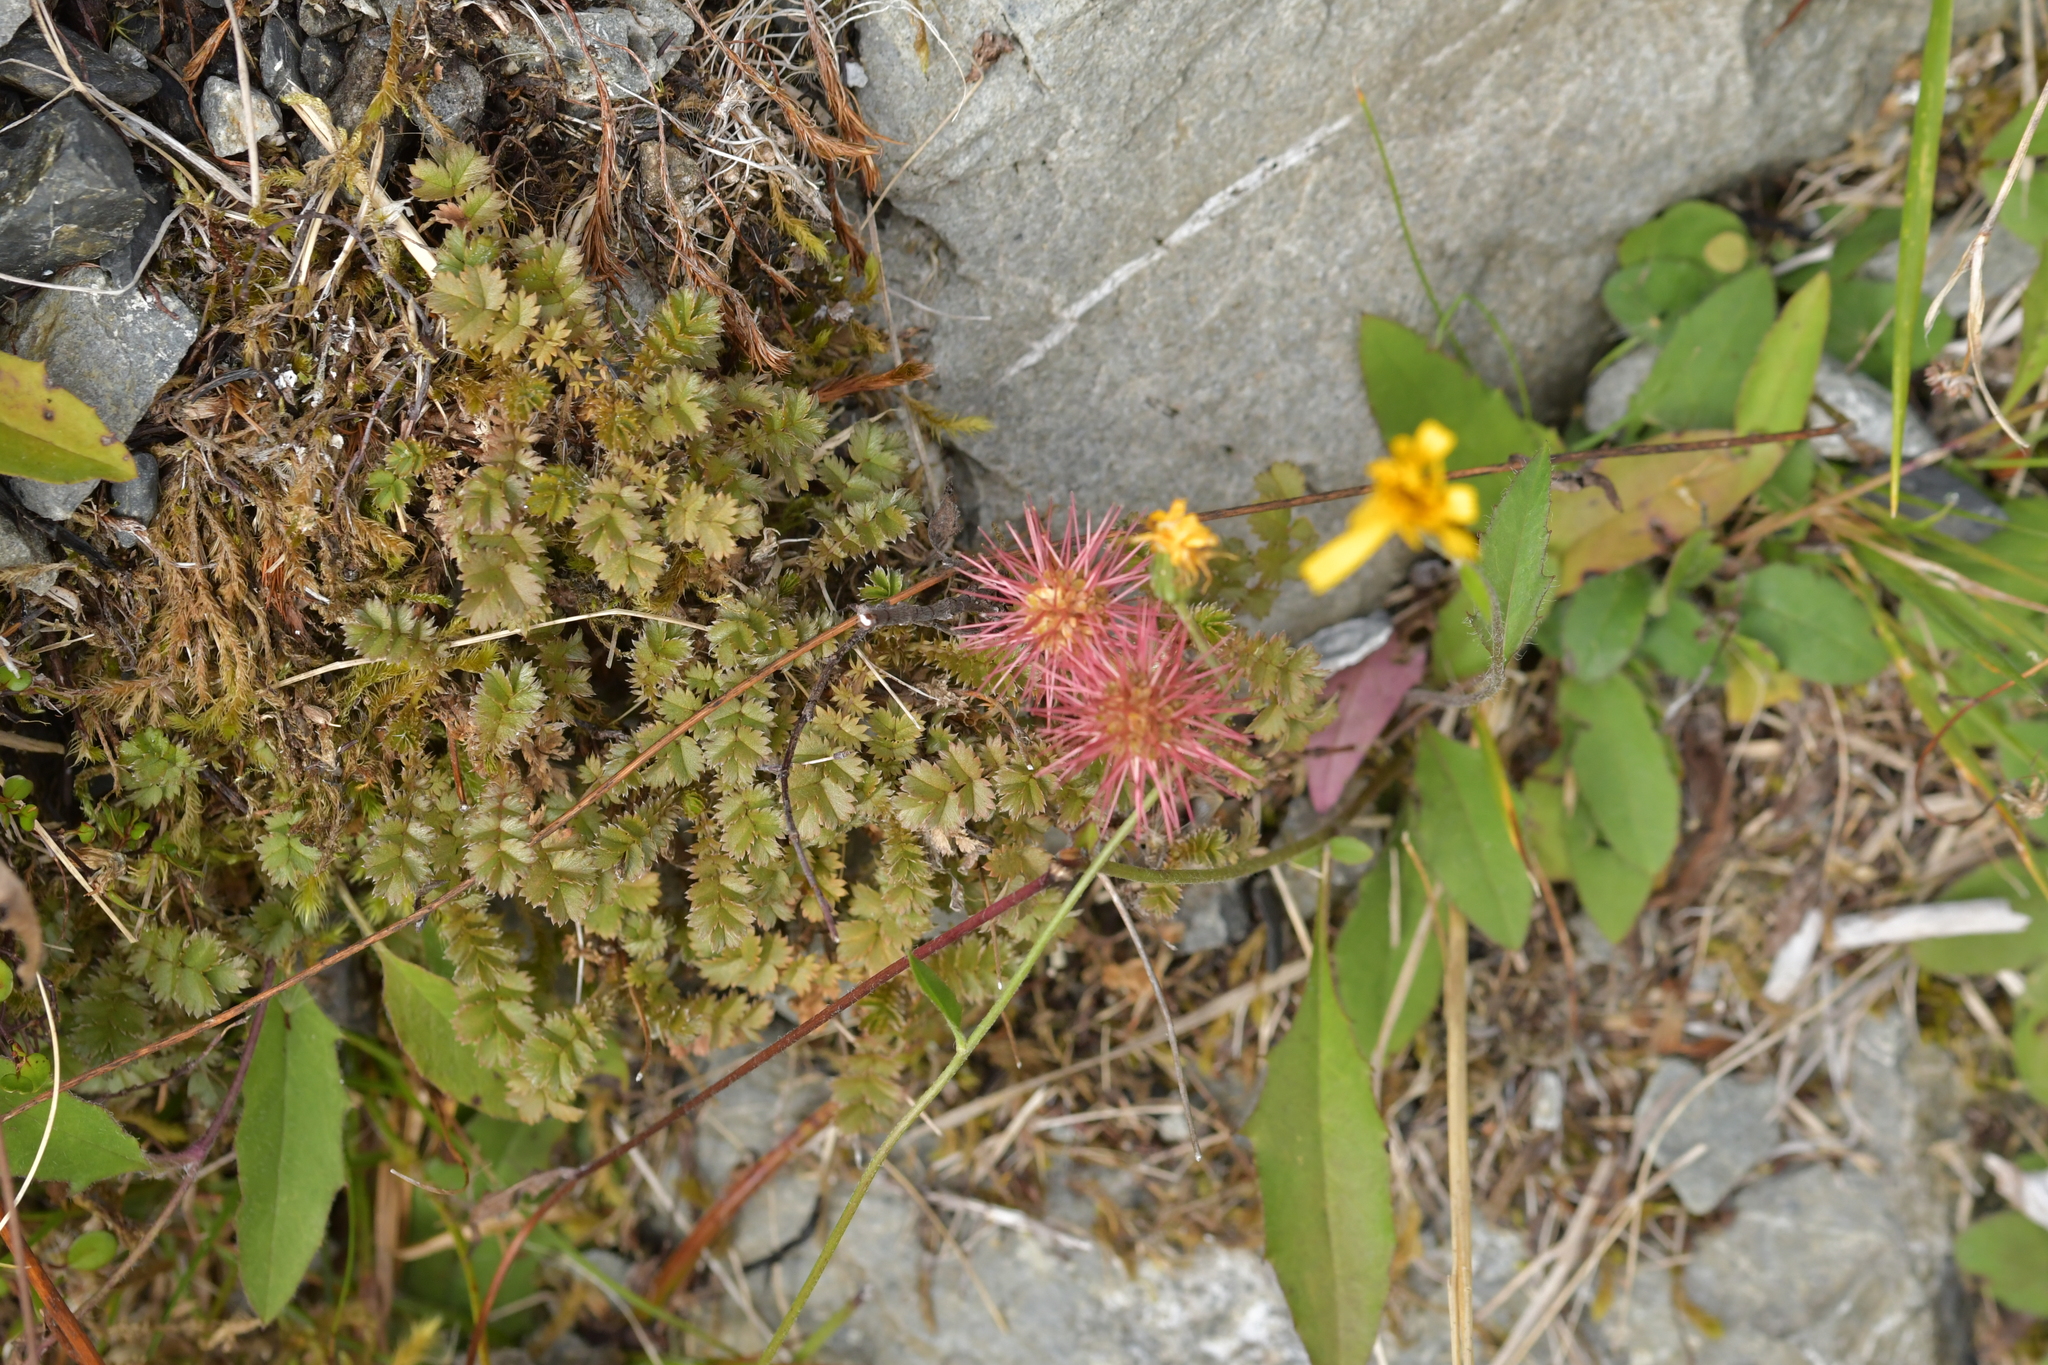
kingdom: Plantae
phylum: Tracheophyta
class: Magnoliopsida
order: Rosales
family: Rosaceae
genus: Acaena
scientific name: Acaena novae-zelandiae
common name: Pirri-pirri-bur
